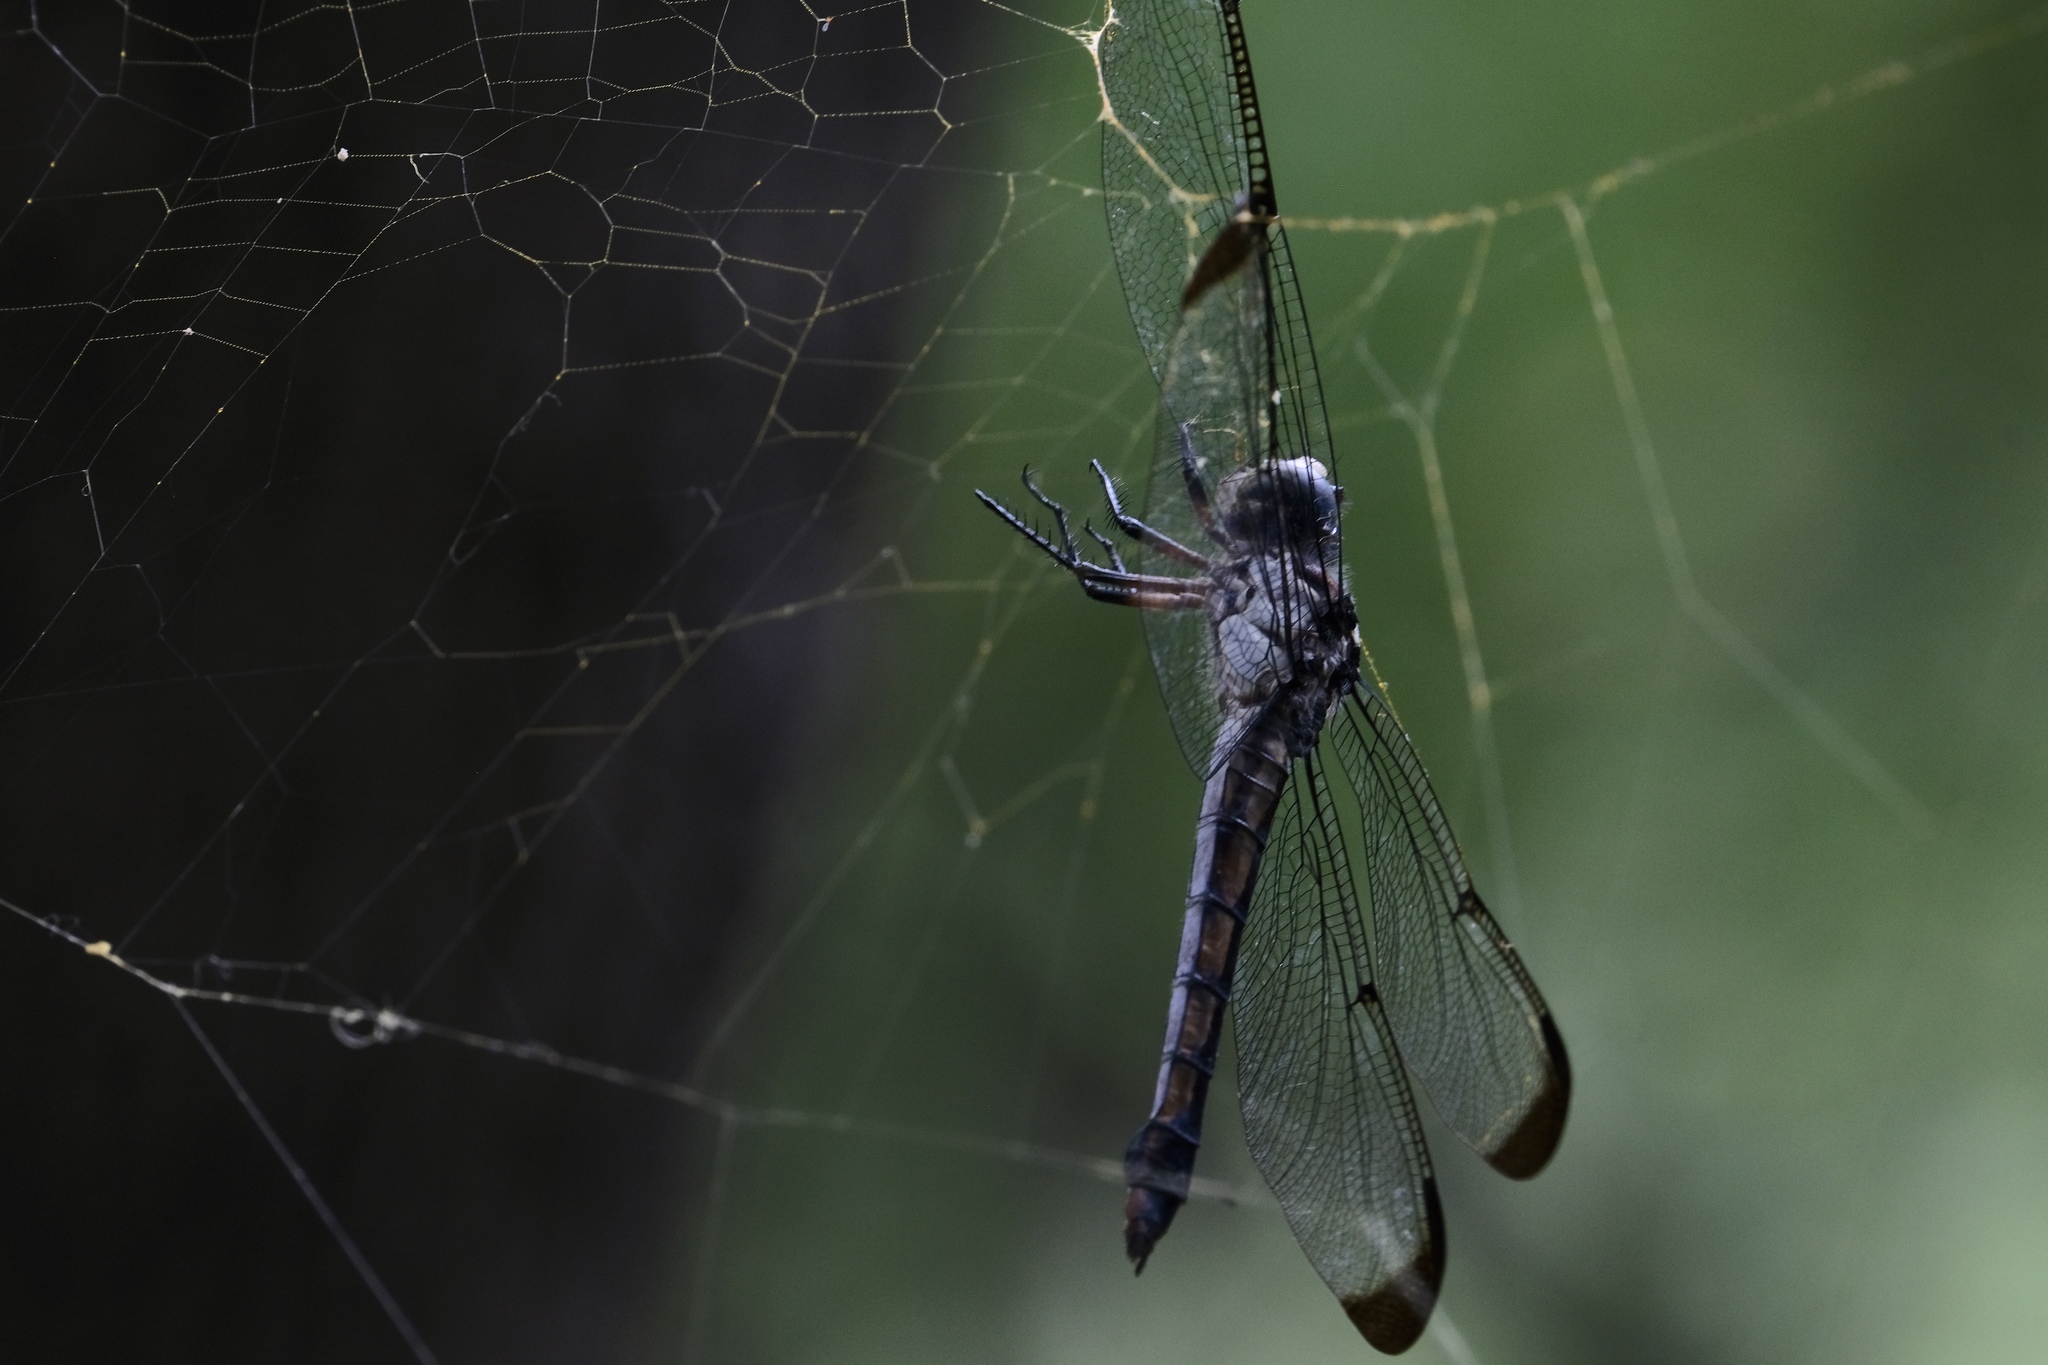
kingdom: Animalia
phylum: Arthropoda
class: Insecta
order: Odonata
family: Libellulidae
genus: Libellula
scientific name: Libellula vibrans
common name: Great blue skimmer
